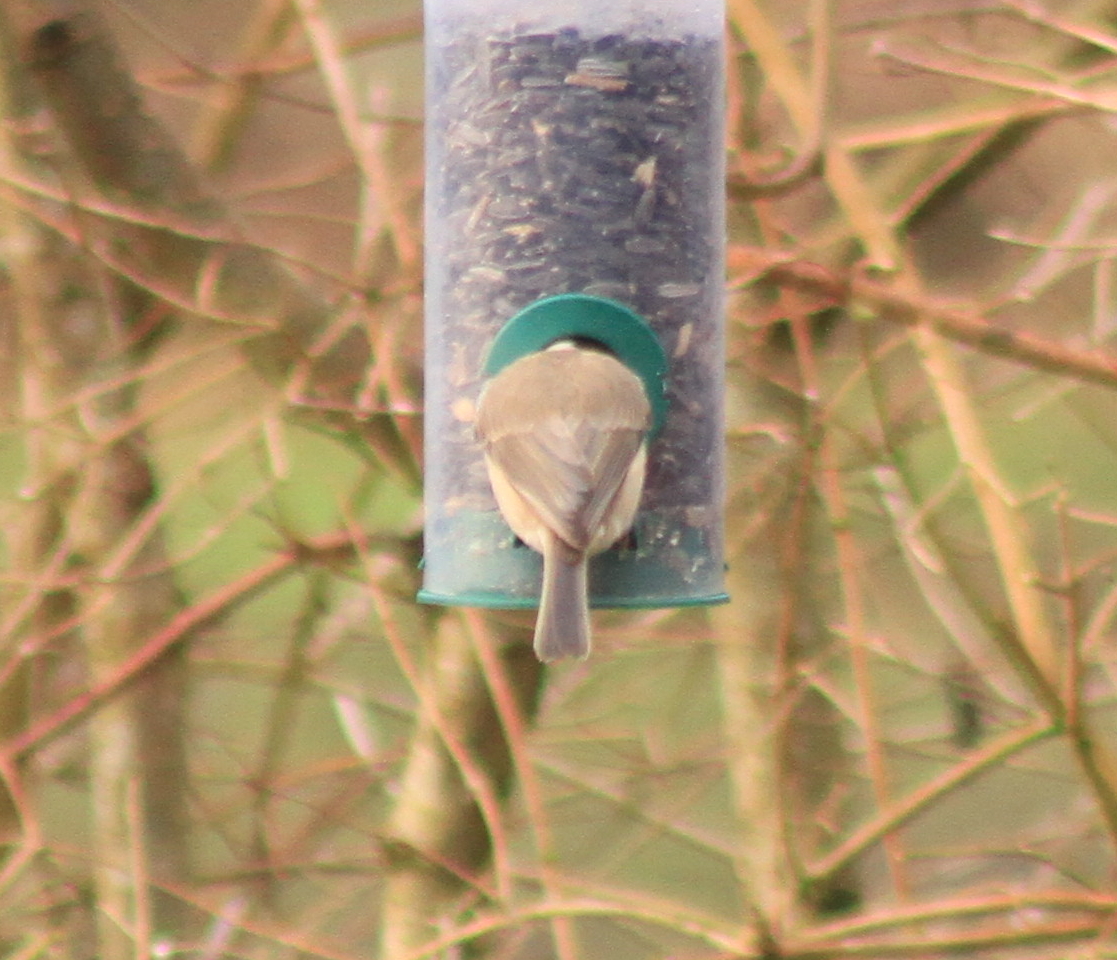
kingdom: Animalia
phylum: Chordata
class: Aves
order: Passeriformes
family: Paridae
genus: Poecile
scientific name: Poecile palustris
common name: Marsh tit
